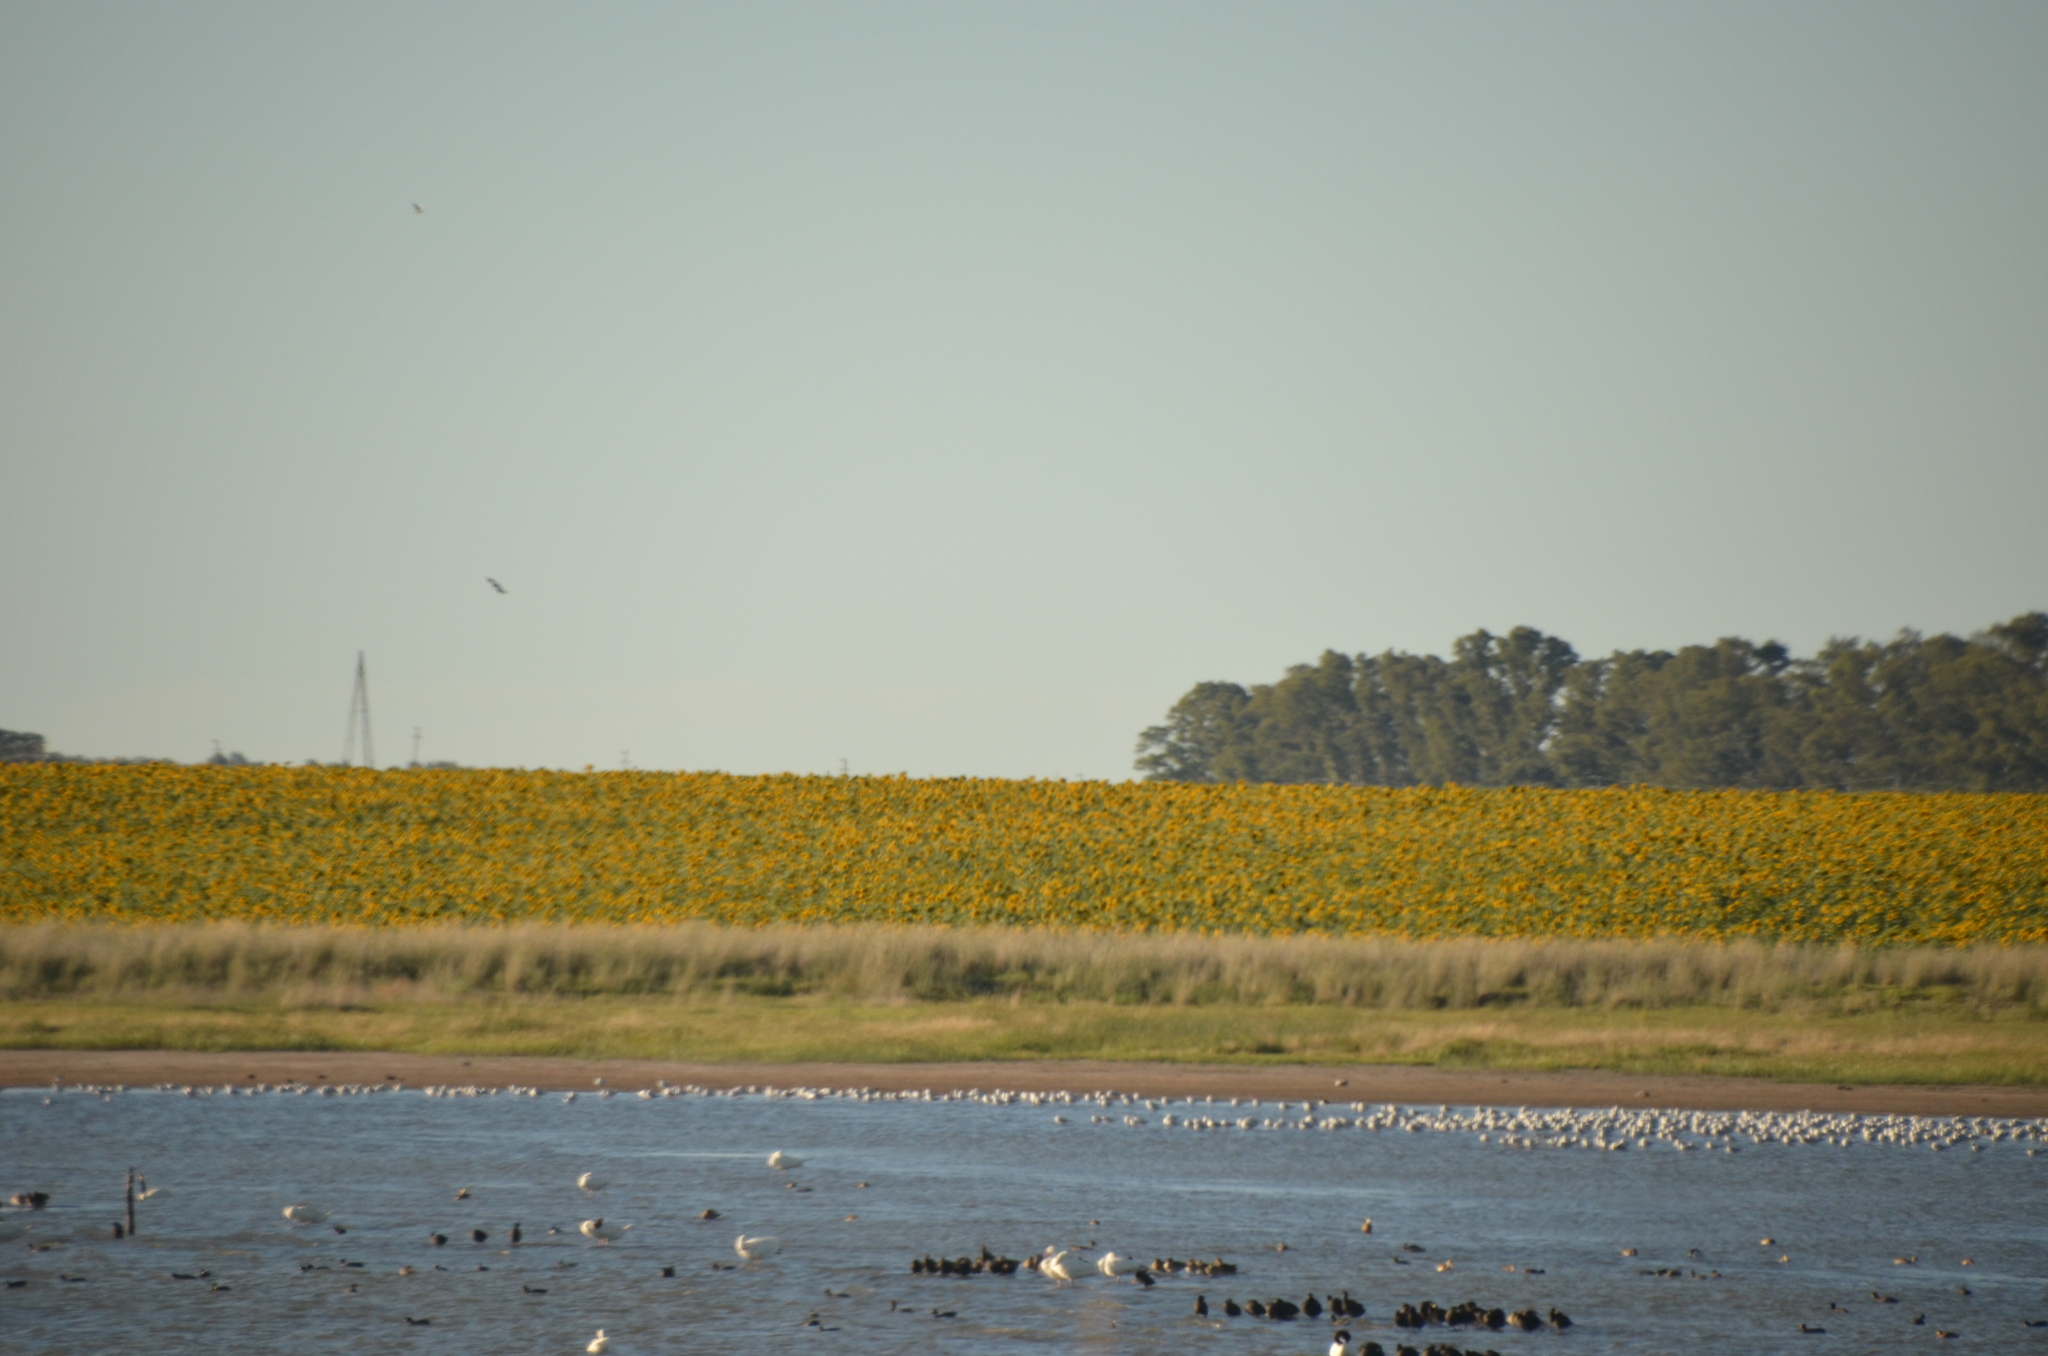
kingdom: Animalia
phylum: Chordata
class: Aves
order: Anseriformes
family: Anatidae
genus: Coscoroba
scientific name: Coscoroba coscoroba
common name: Coscoroba swan
